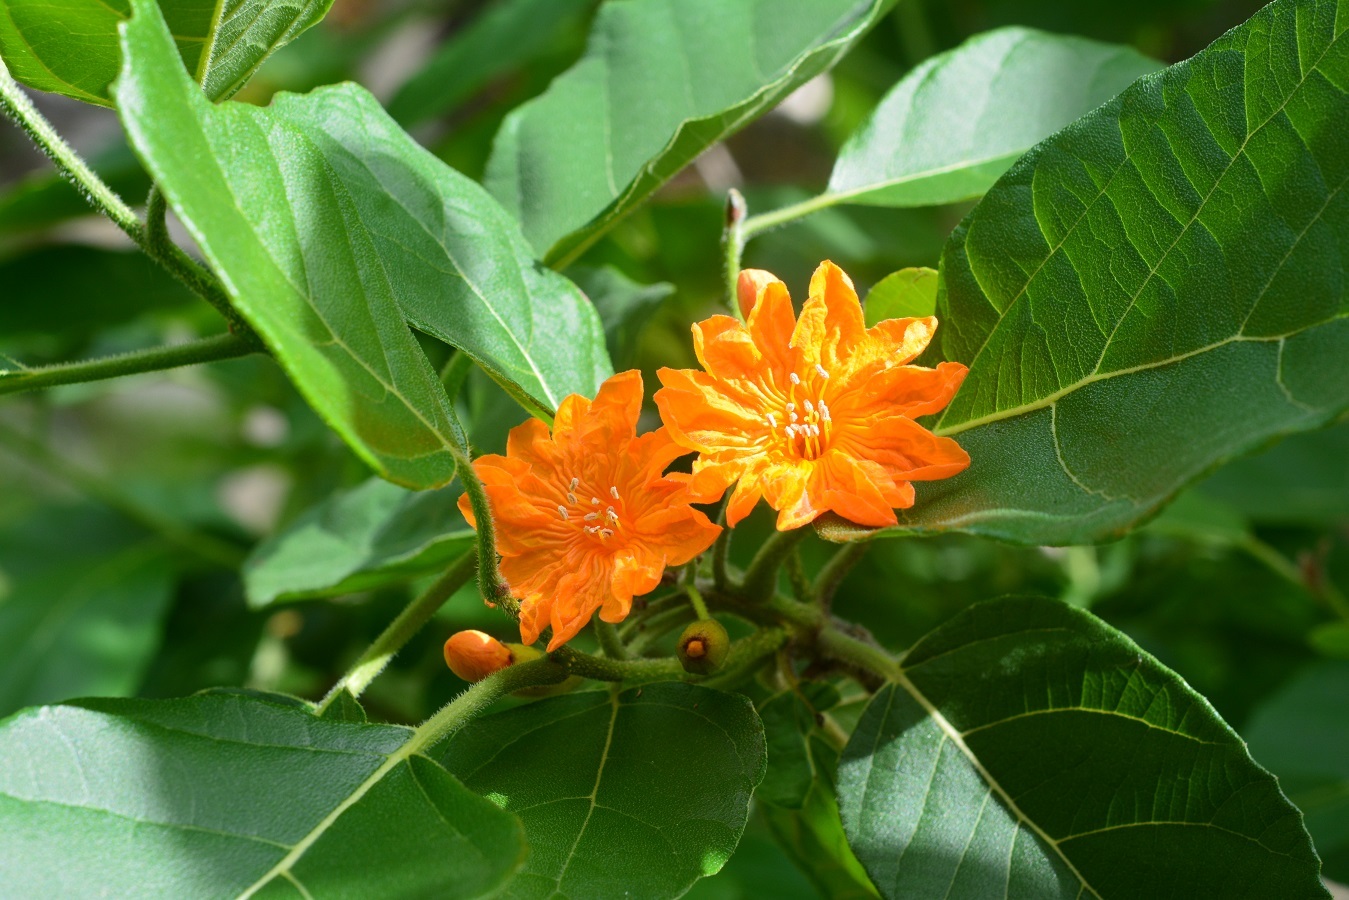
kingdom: Plantae
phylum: Tracheophyta
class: Magnoliopsida
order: Boraginales
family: Cordiaceae
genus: Cordia
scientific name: Cordia dodecandra
